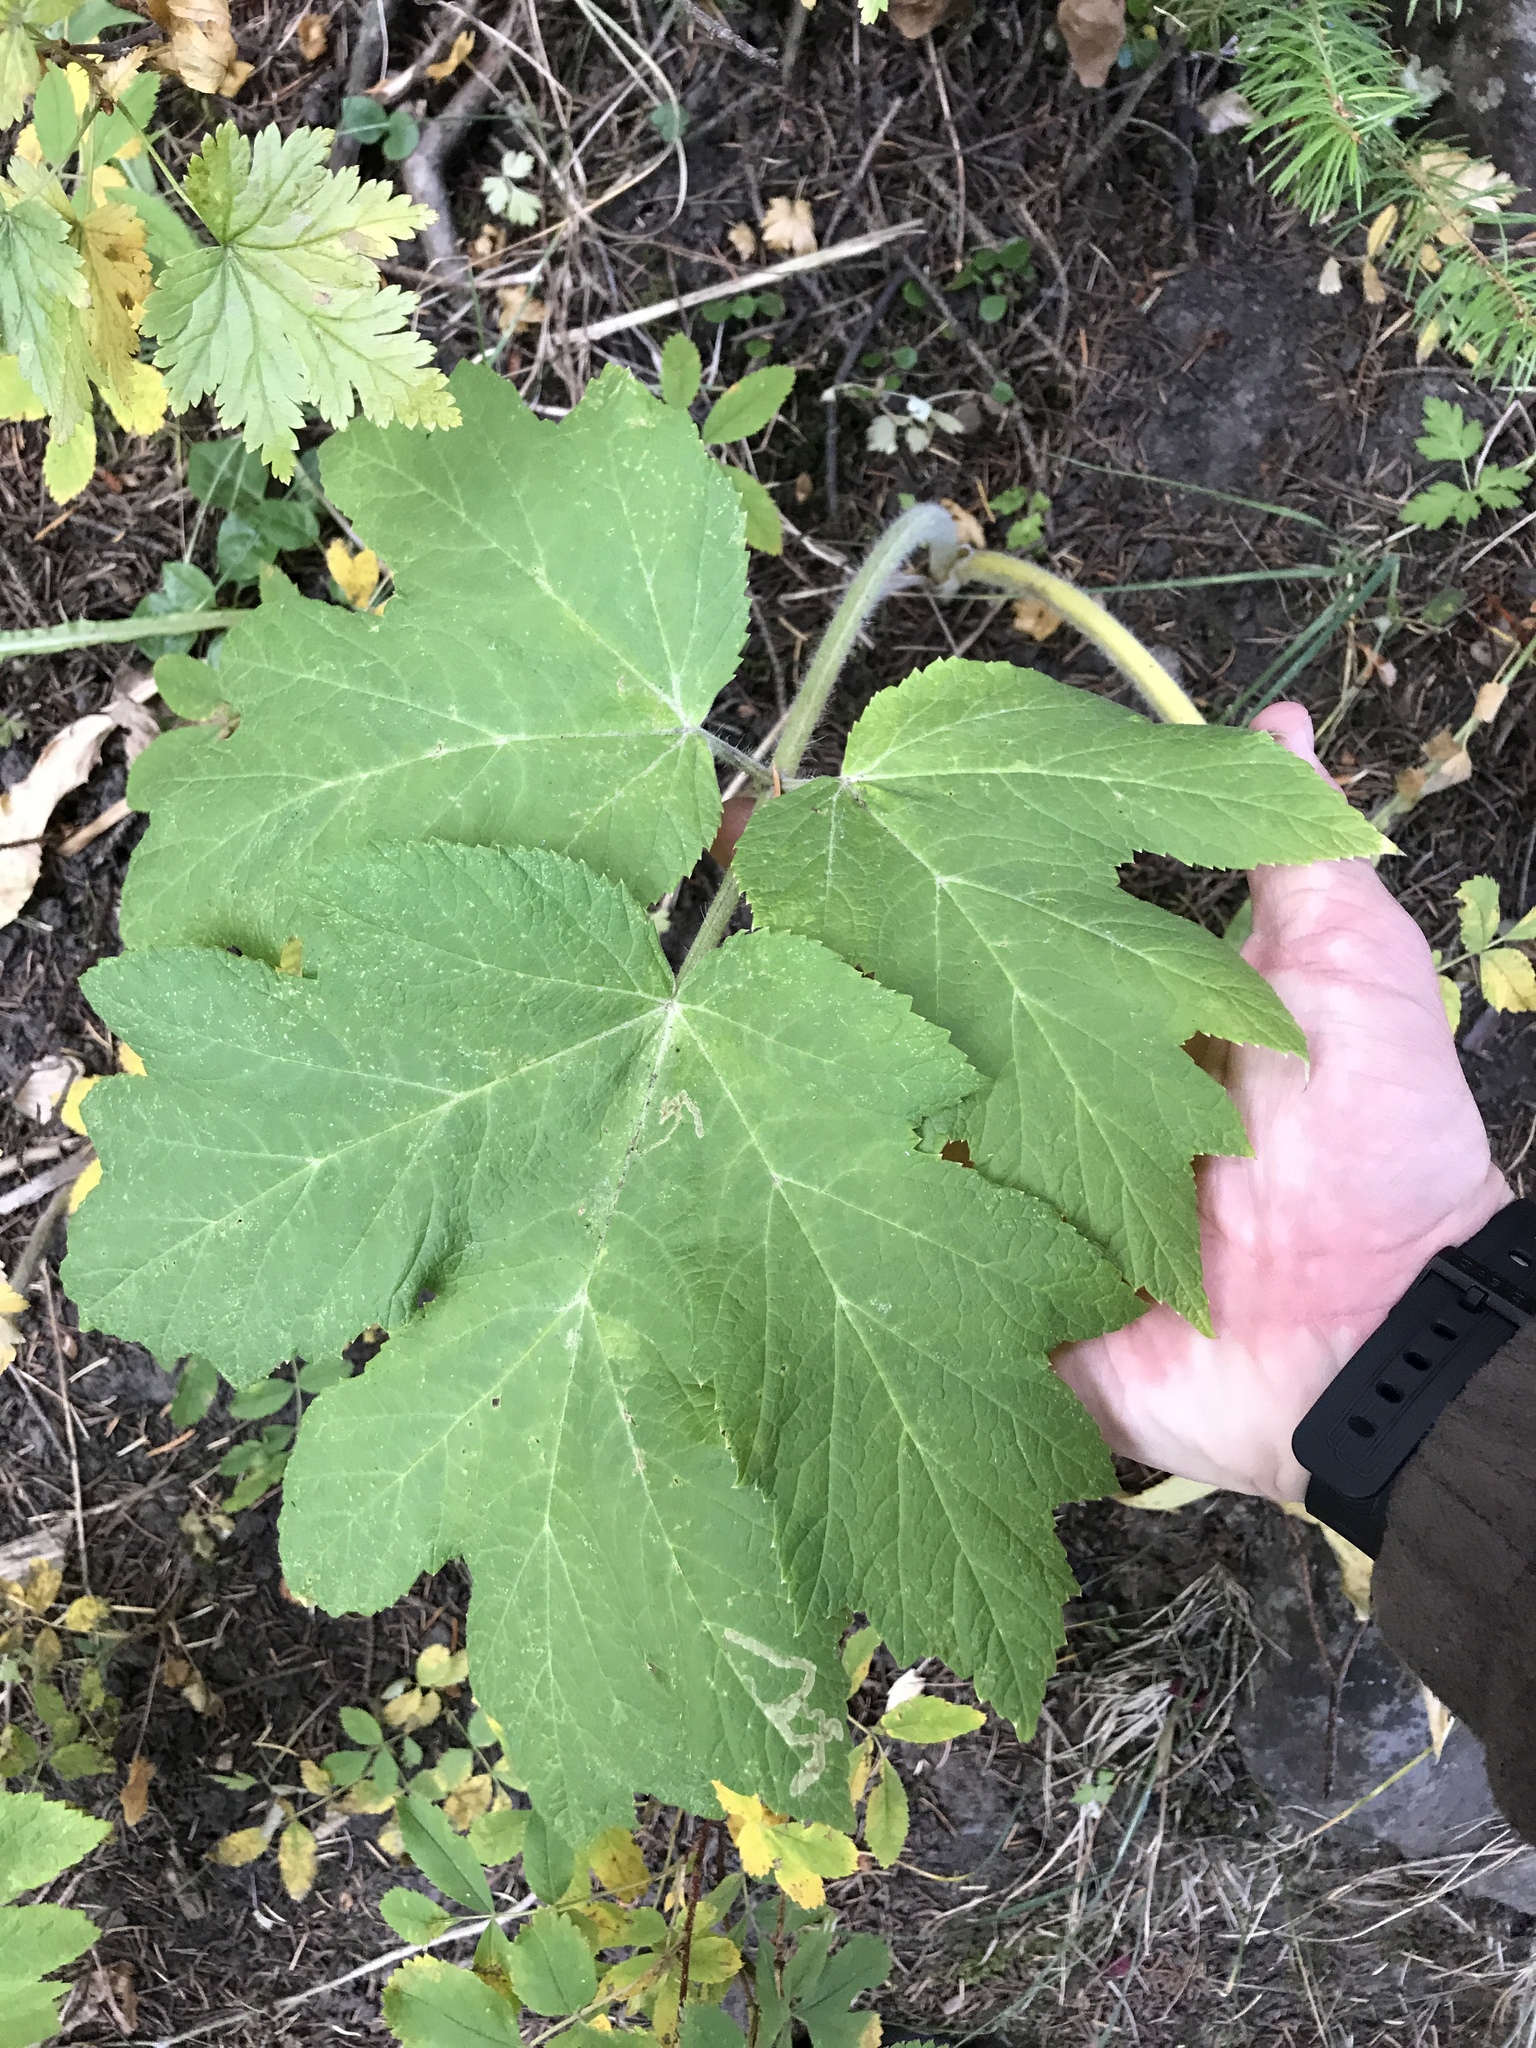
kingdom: Plantae
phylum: Tracheophyta
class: Magnoliopsida
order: Apiales
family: Apiaceae
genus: Heracleum
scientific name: Heracleum maximum
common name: American cow parsnip
